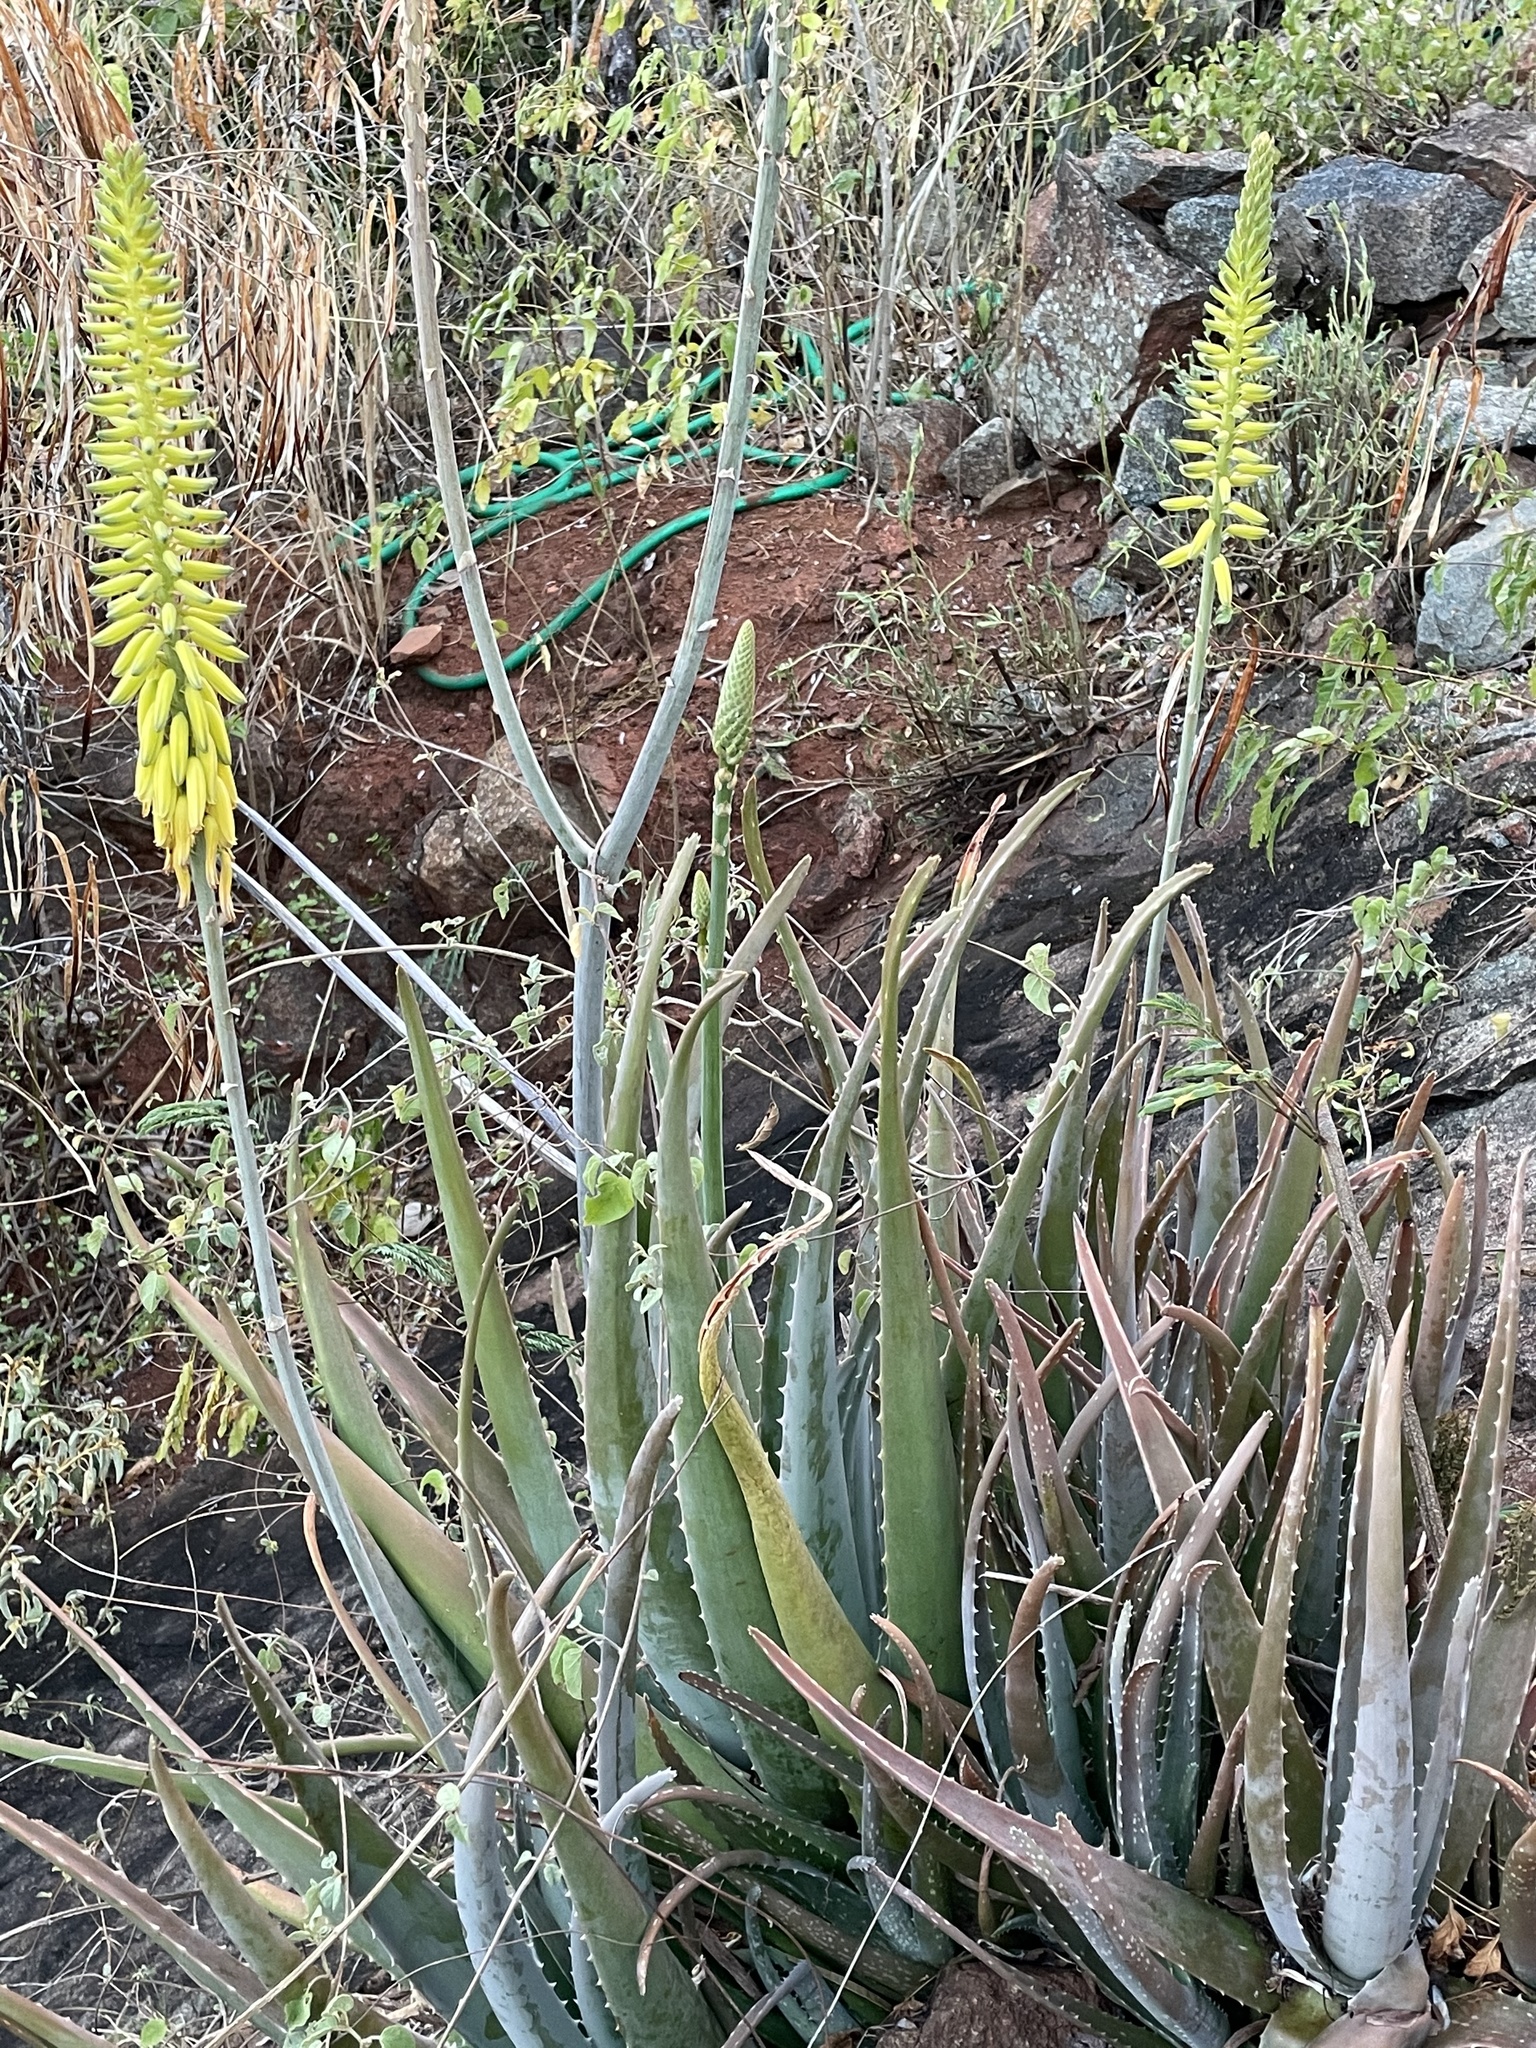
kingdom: Plantae
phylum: Tracheophyta
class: Liliopsida
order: Asparagales
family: Asphodelaceae
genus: Aloe
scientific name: Aloe vera
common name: Barbados aloe
